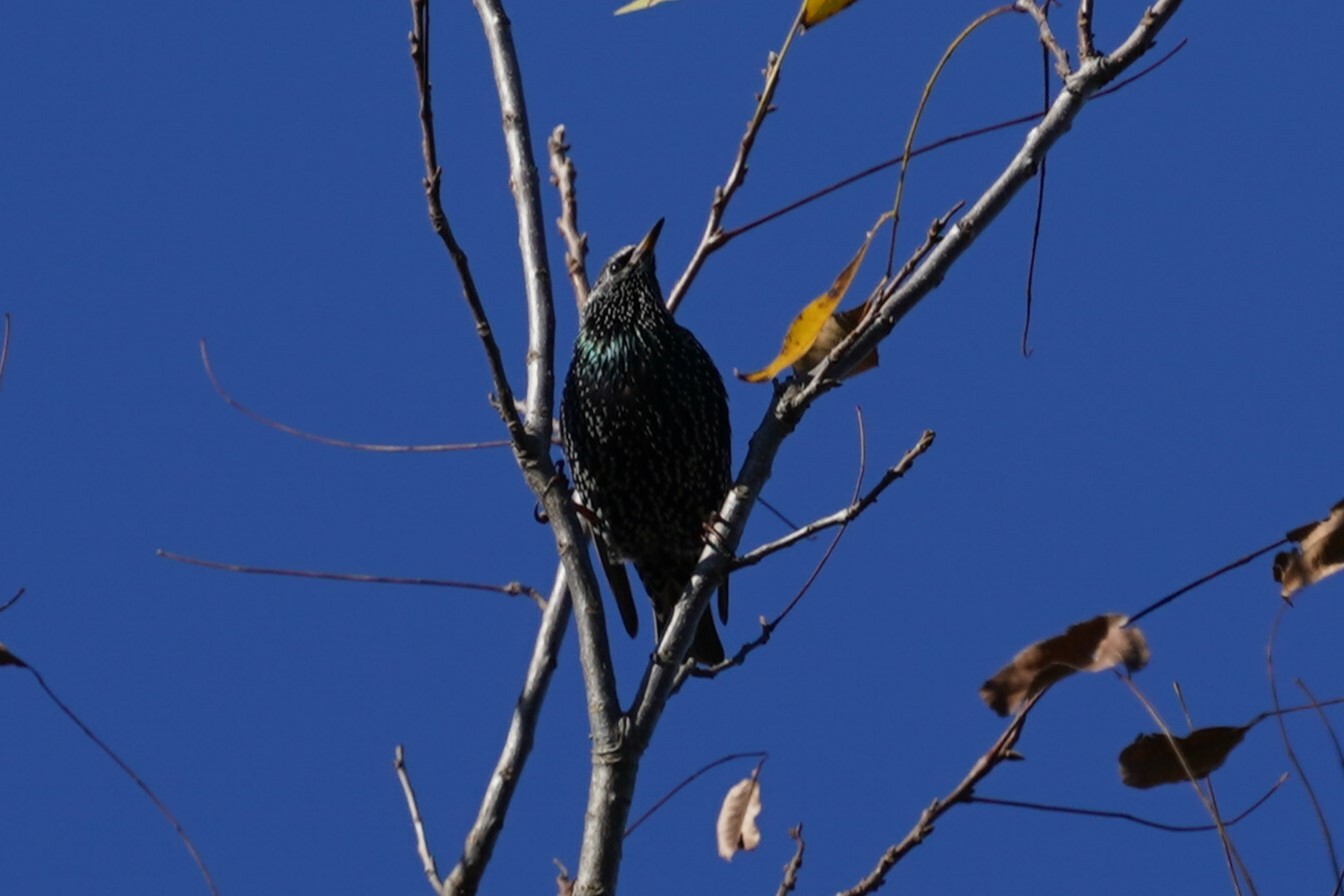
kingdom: Animalia
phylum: Chordata
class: Aves
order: Passeriformes
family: Sturnidae
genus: Sturnus
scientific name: Sturnus vulgaris
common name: Common starling
